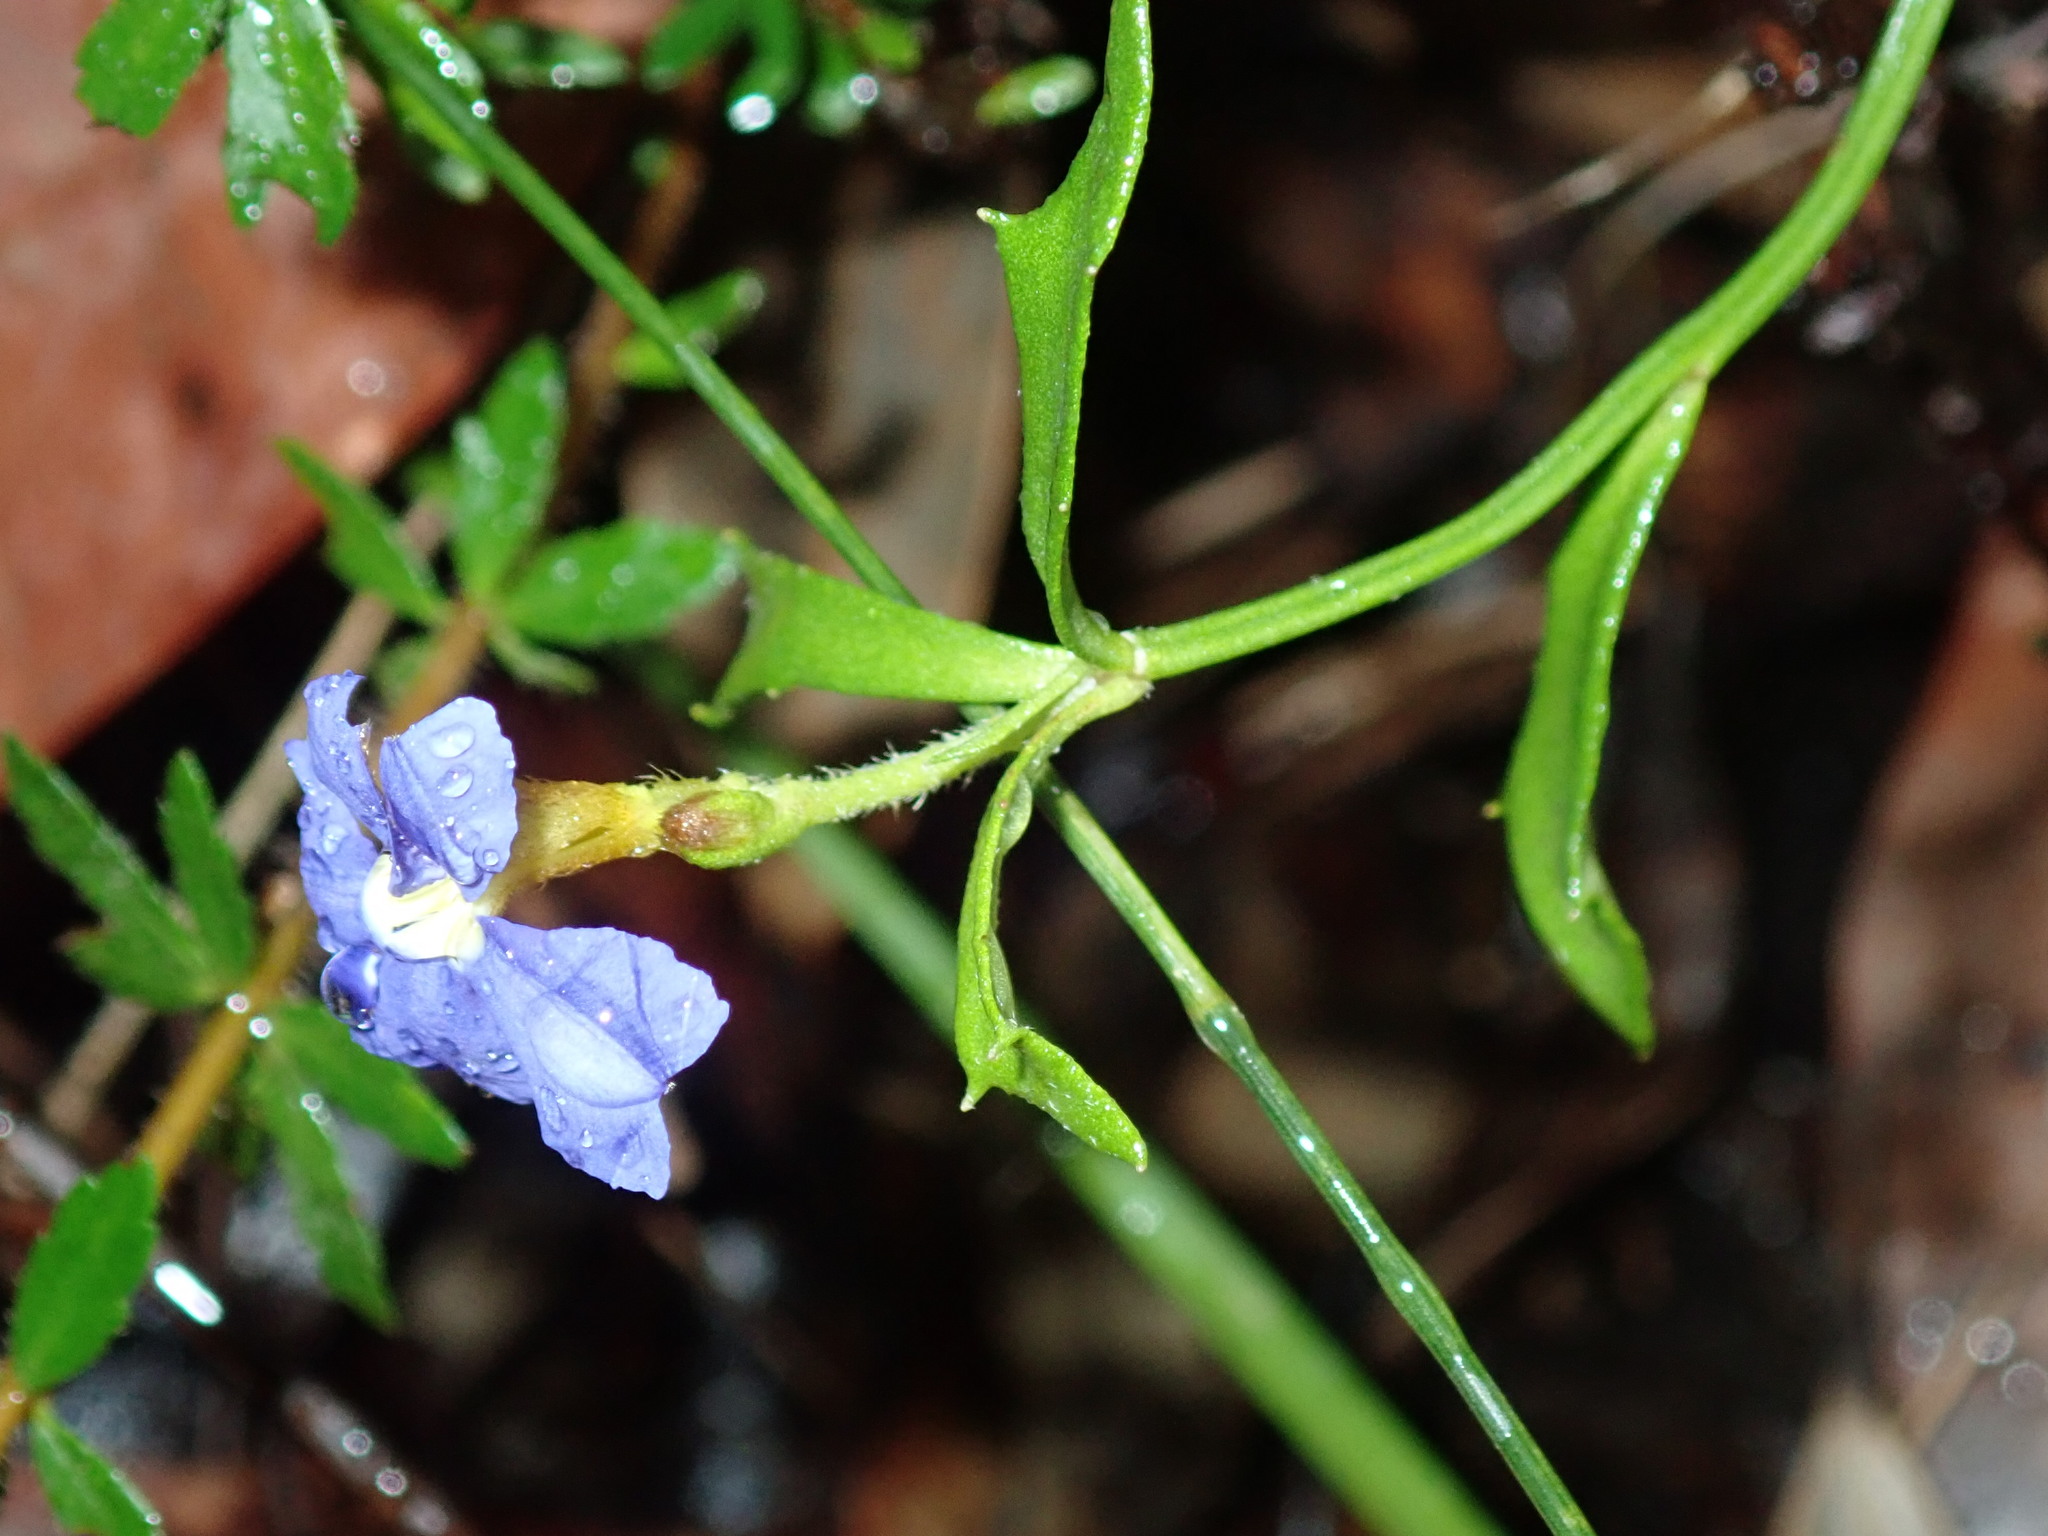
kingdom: Plantae
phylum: Tracheophyta
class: Magnoliopsida
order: Asterales
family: Goodeniaceae
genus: Dampiera
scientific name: Dampiera stricta
